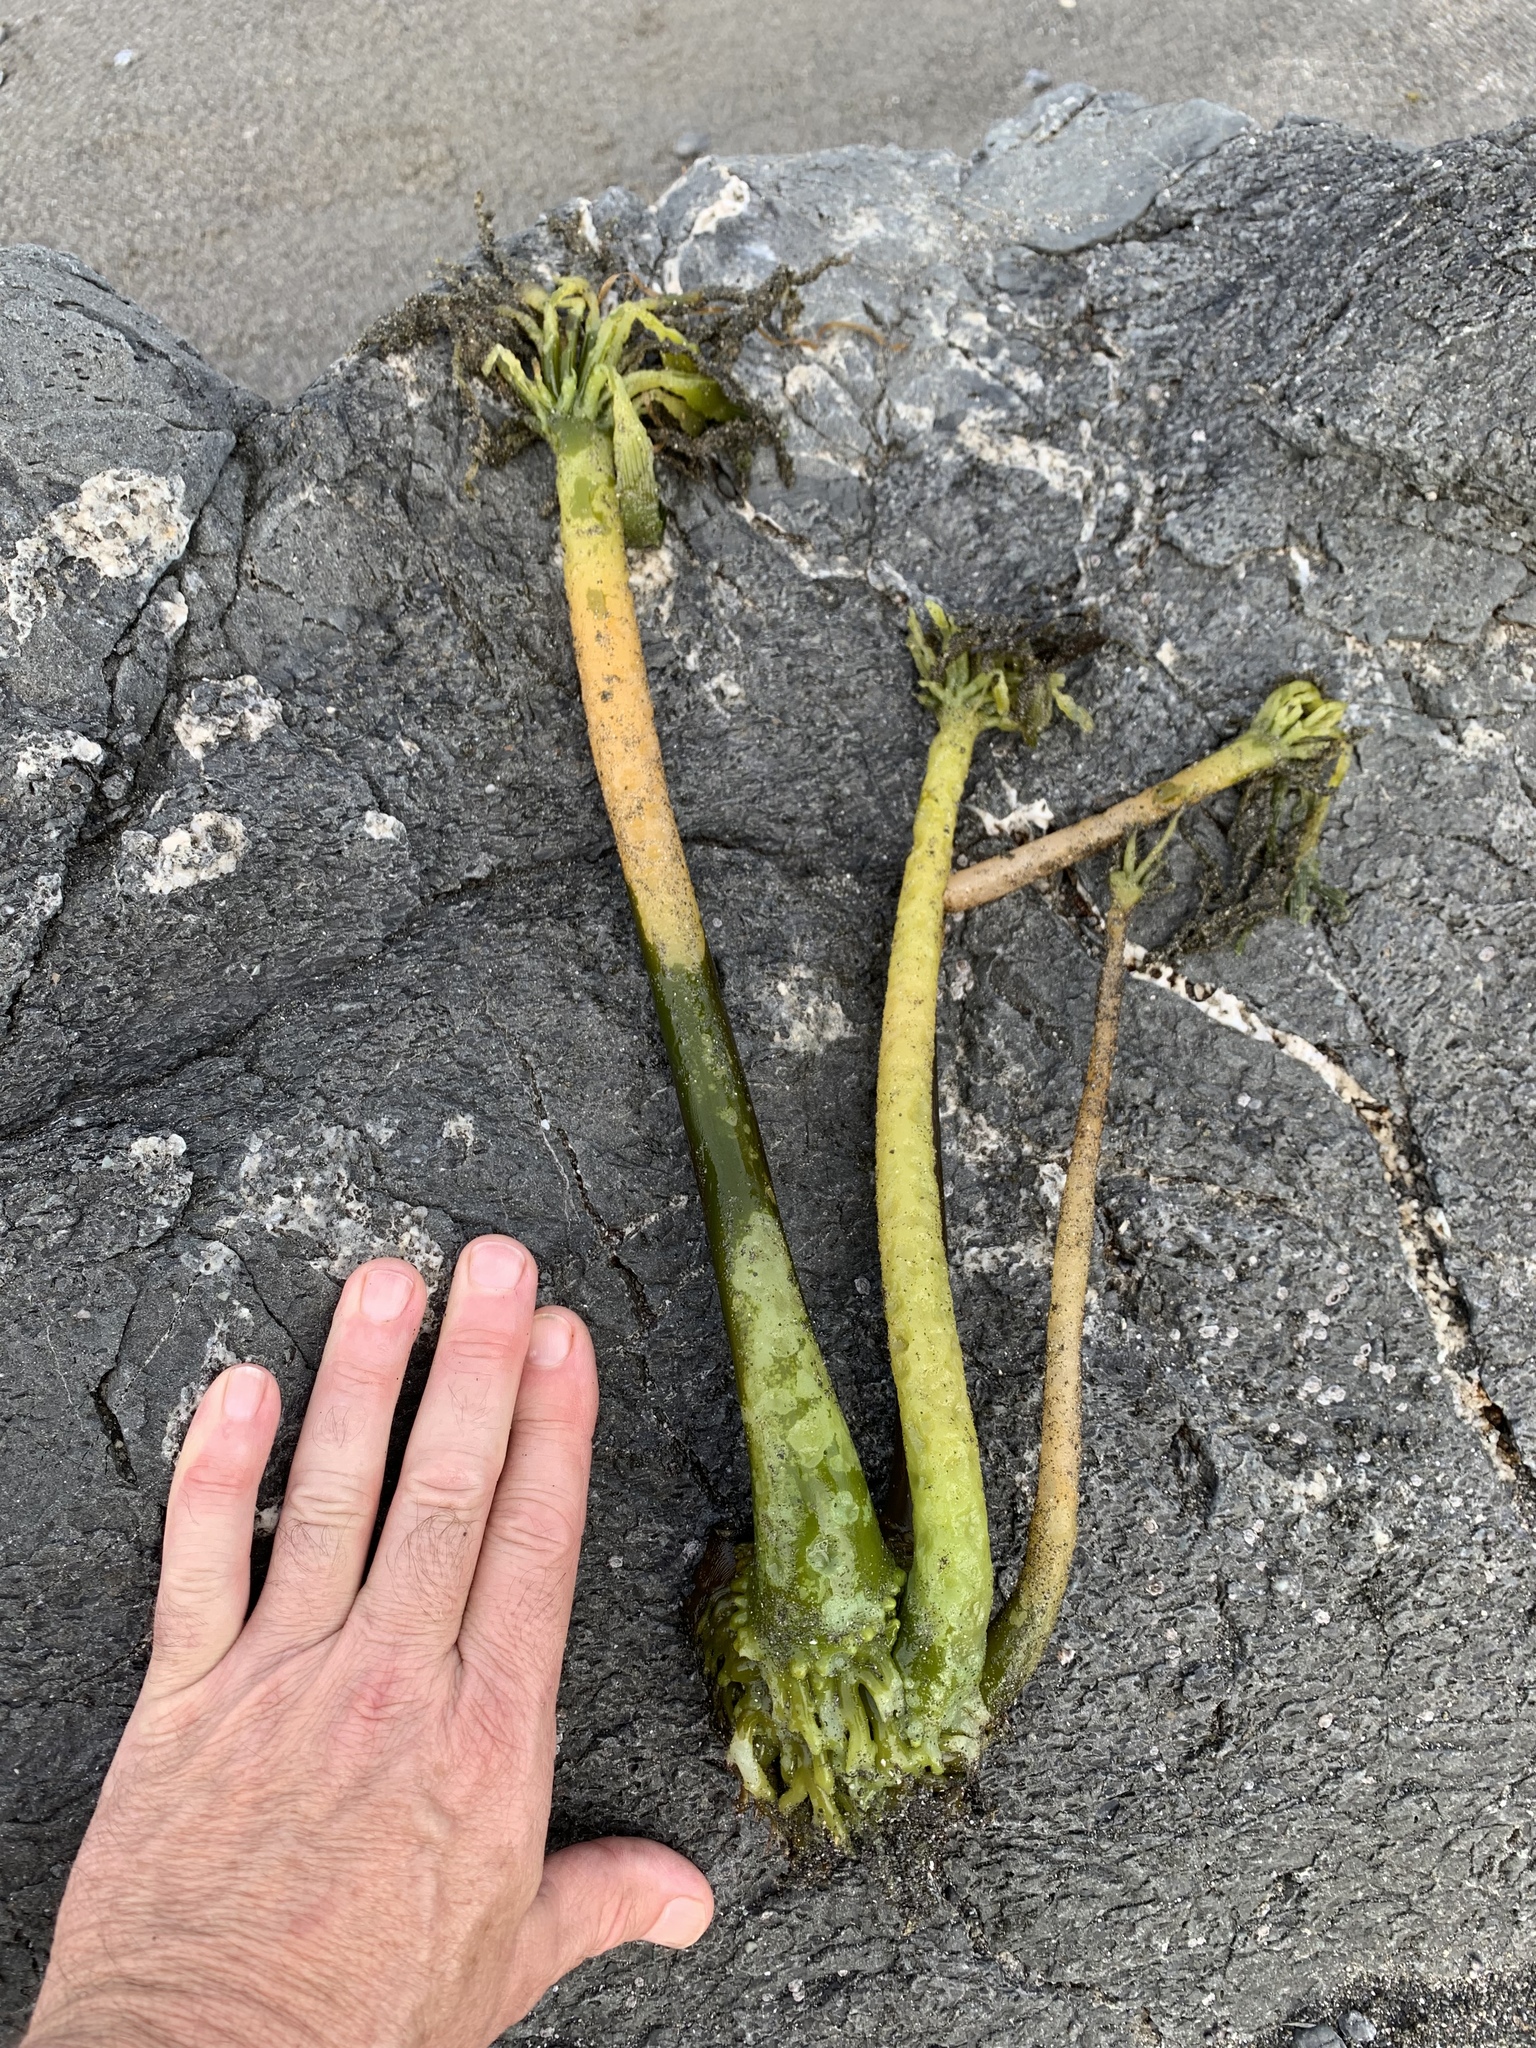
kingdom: Chromista
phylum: Ochrophyta
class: Phaeophyceae
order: Laminariales
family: Laminariaceae
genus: Postelsia
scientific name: Postelsia palmiformis
